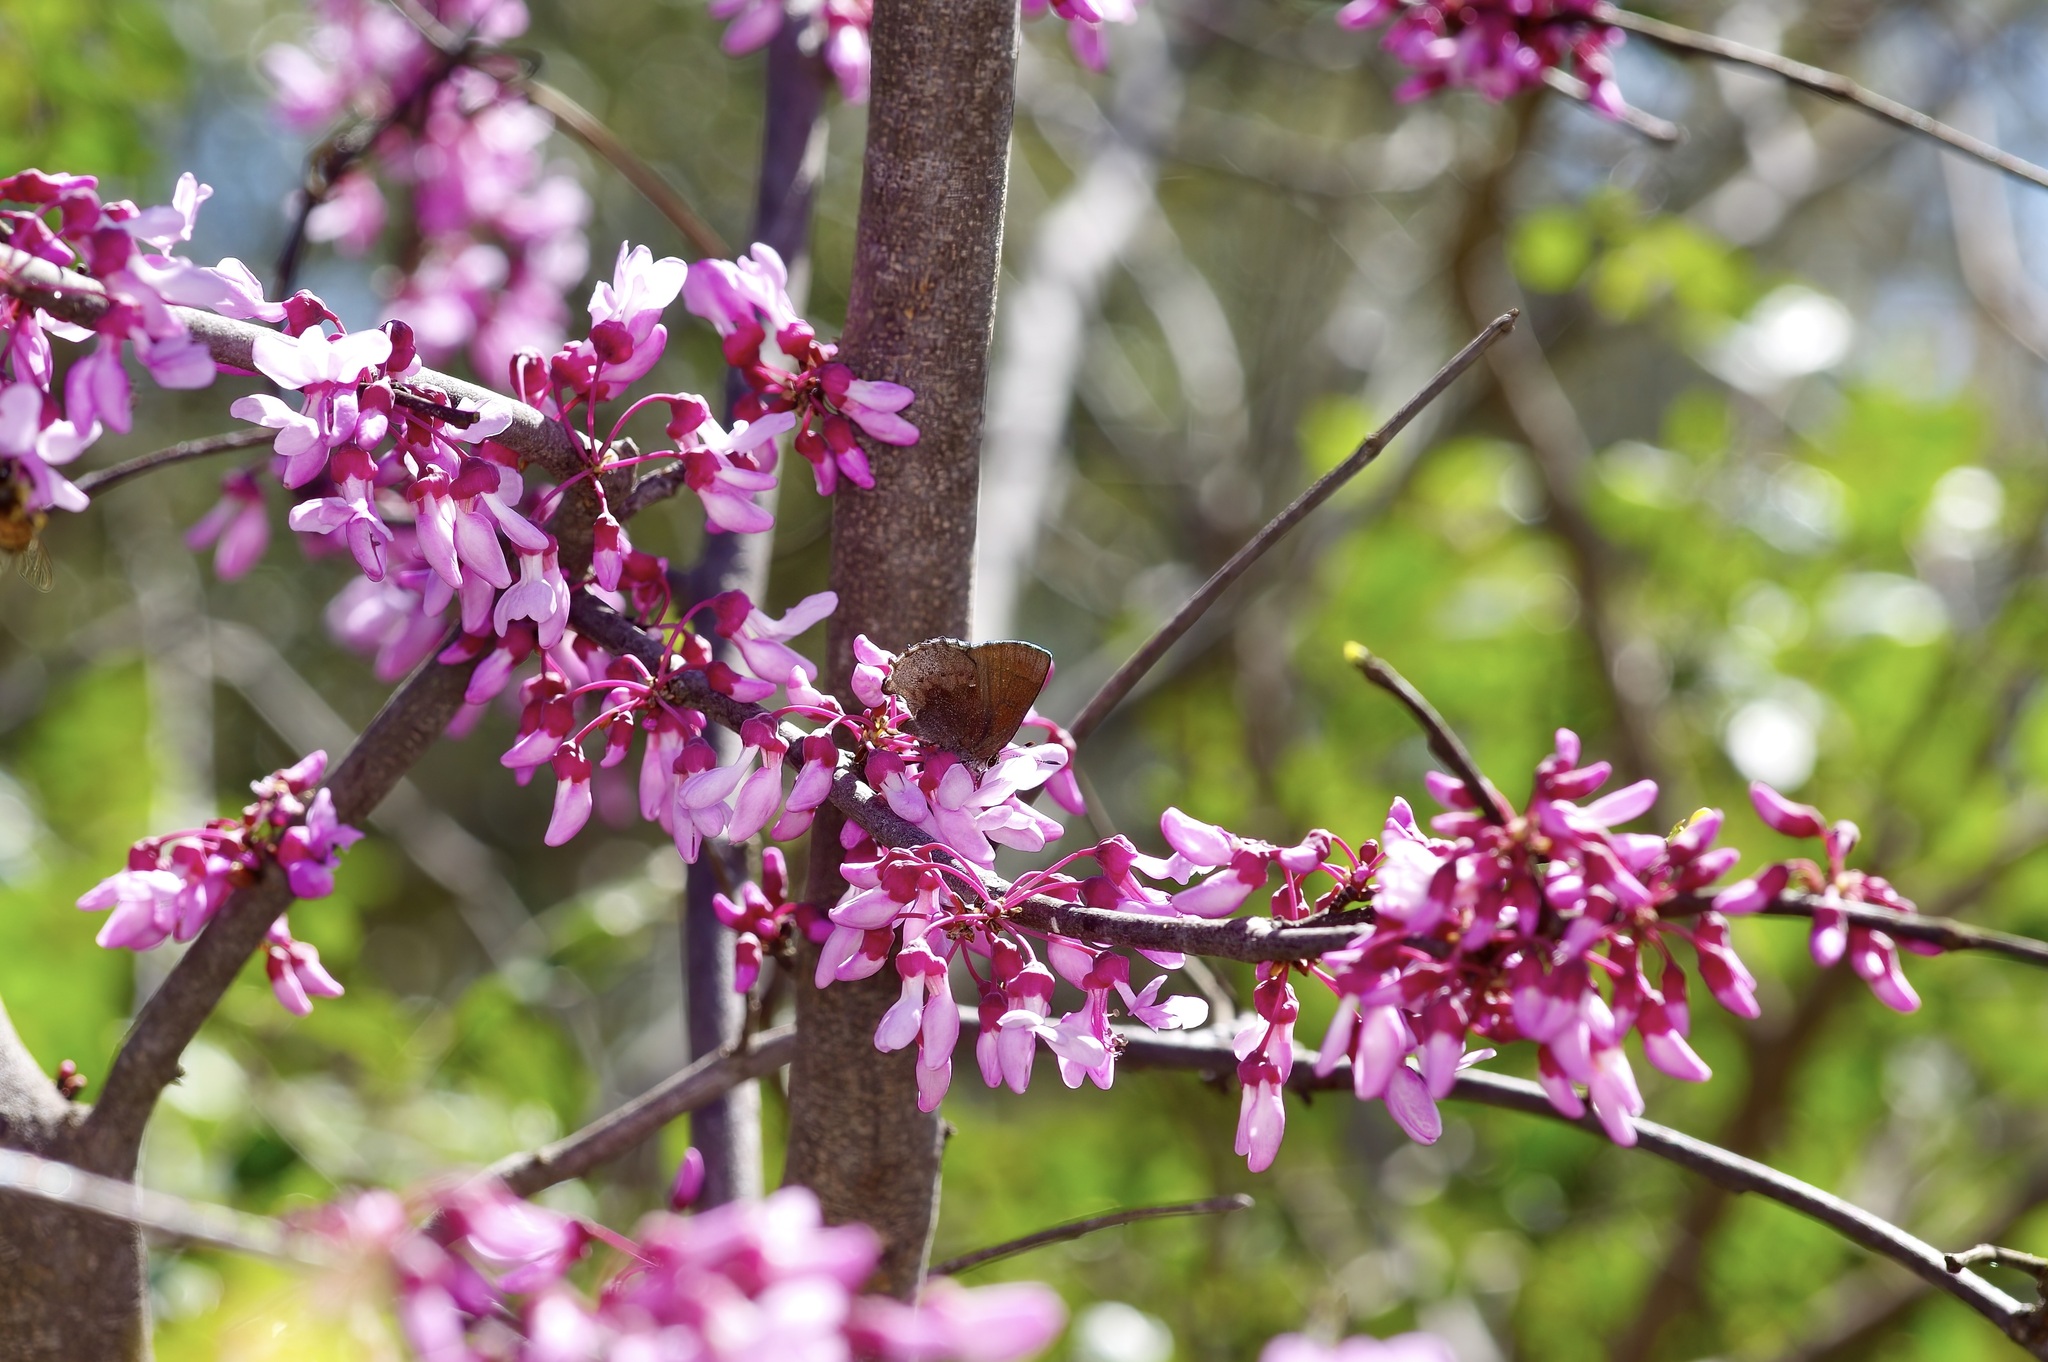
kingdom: Animalia
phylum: Arthropoda
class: Insecta
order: Lepidoptera
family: Lycaenidae
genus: Incisalia
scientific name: Incisalia henrici
